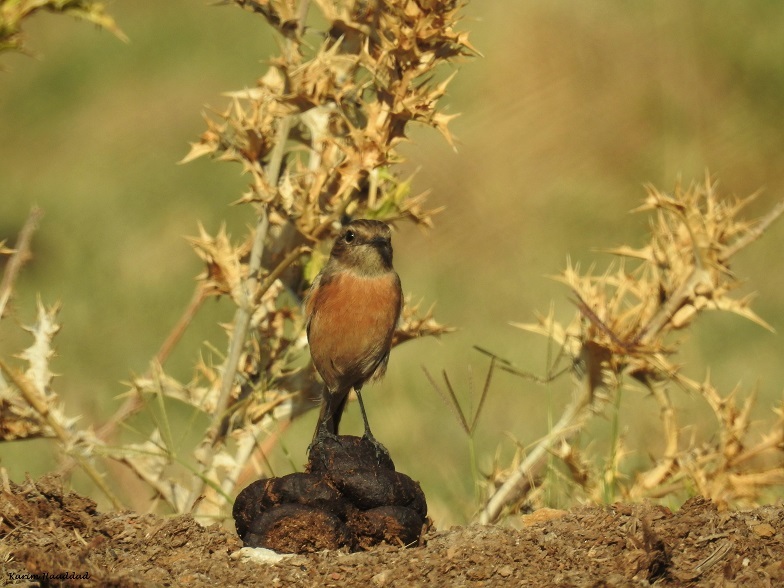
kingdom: Animalia
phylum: Chordata
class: Aves
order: Passeriformes
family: Muscicapidae
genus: Saxicola
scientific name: Saxicola rubicola
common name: European stonechat
